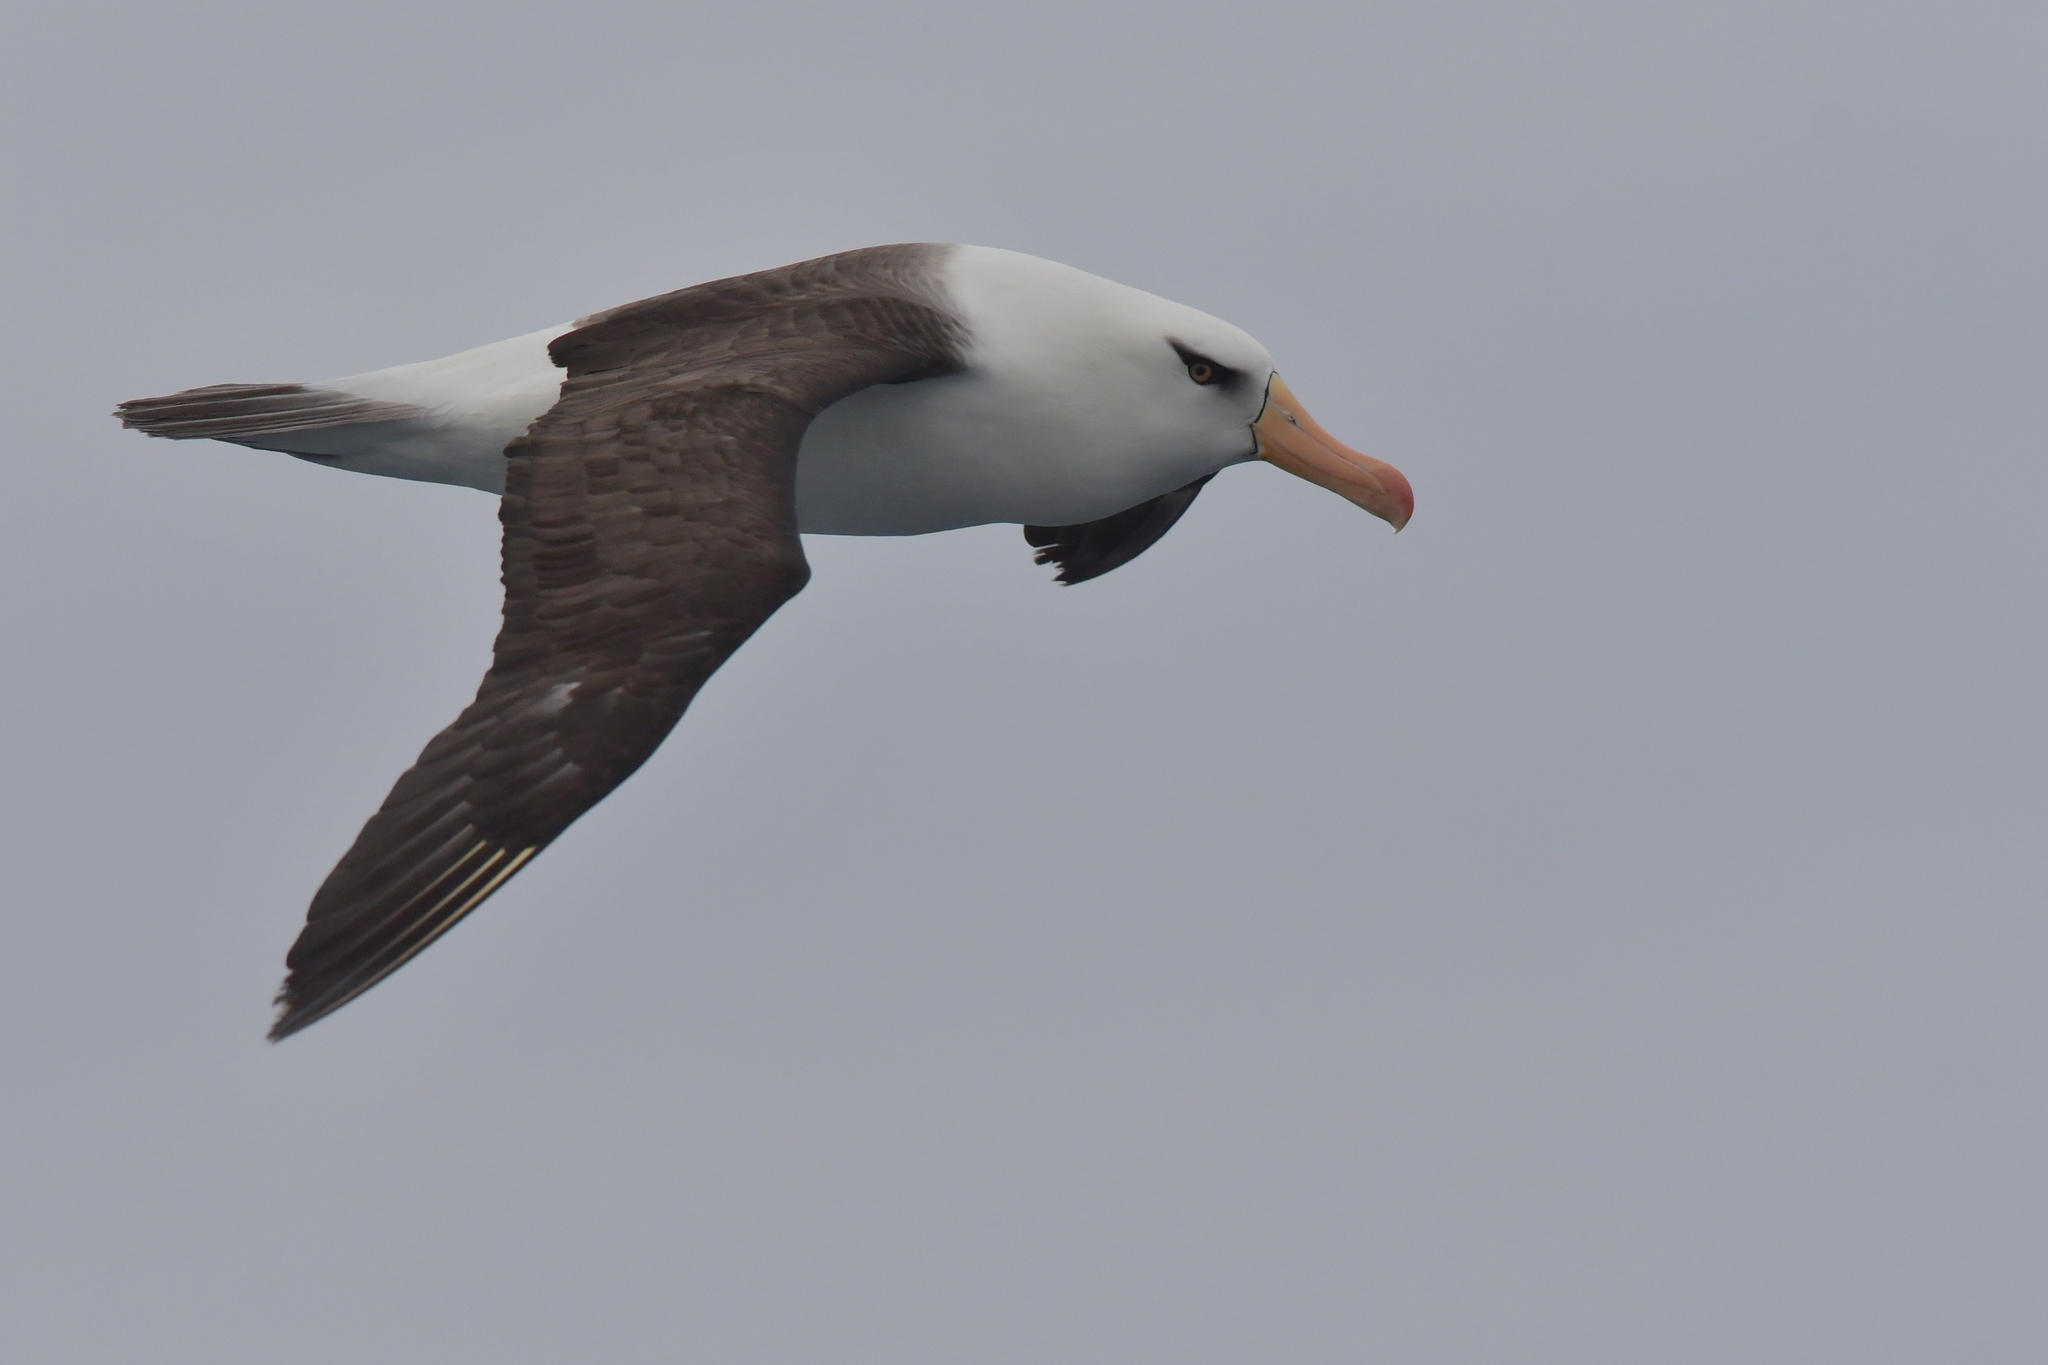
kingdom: Animalia
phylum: Chordata
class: Aves
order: Procellariiformes
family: Diomedeidae
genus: Thalassarche
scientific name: Thalassarche impavida
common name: Campbell albatross
